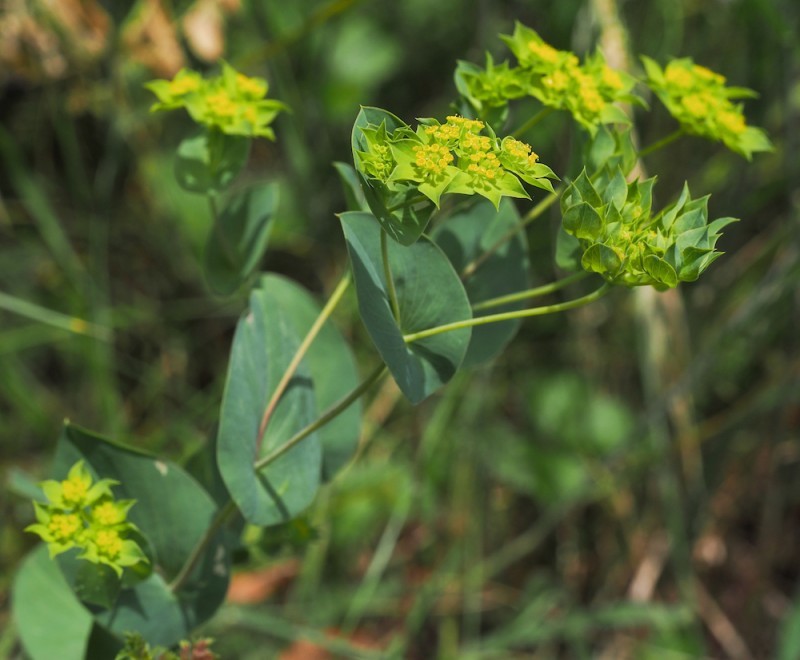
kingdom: Plantae
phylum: Tracheophyta
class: Magnoliopsida
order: Apiales
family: Apiaceae
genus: Bupleurum
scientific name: Bupleurum rotundifolium
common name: Thorow-wax
